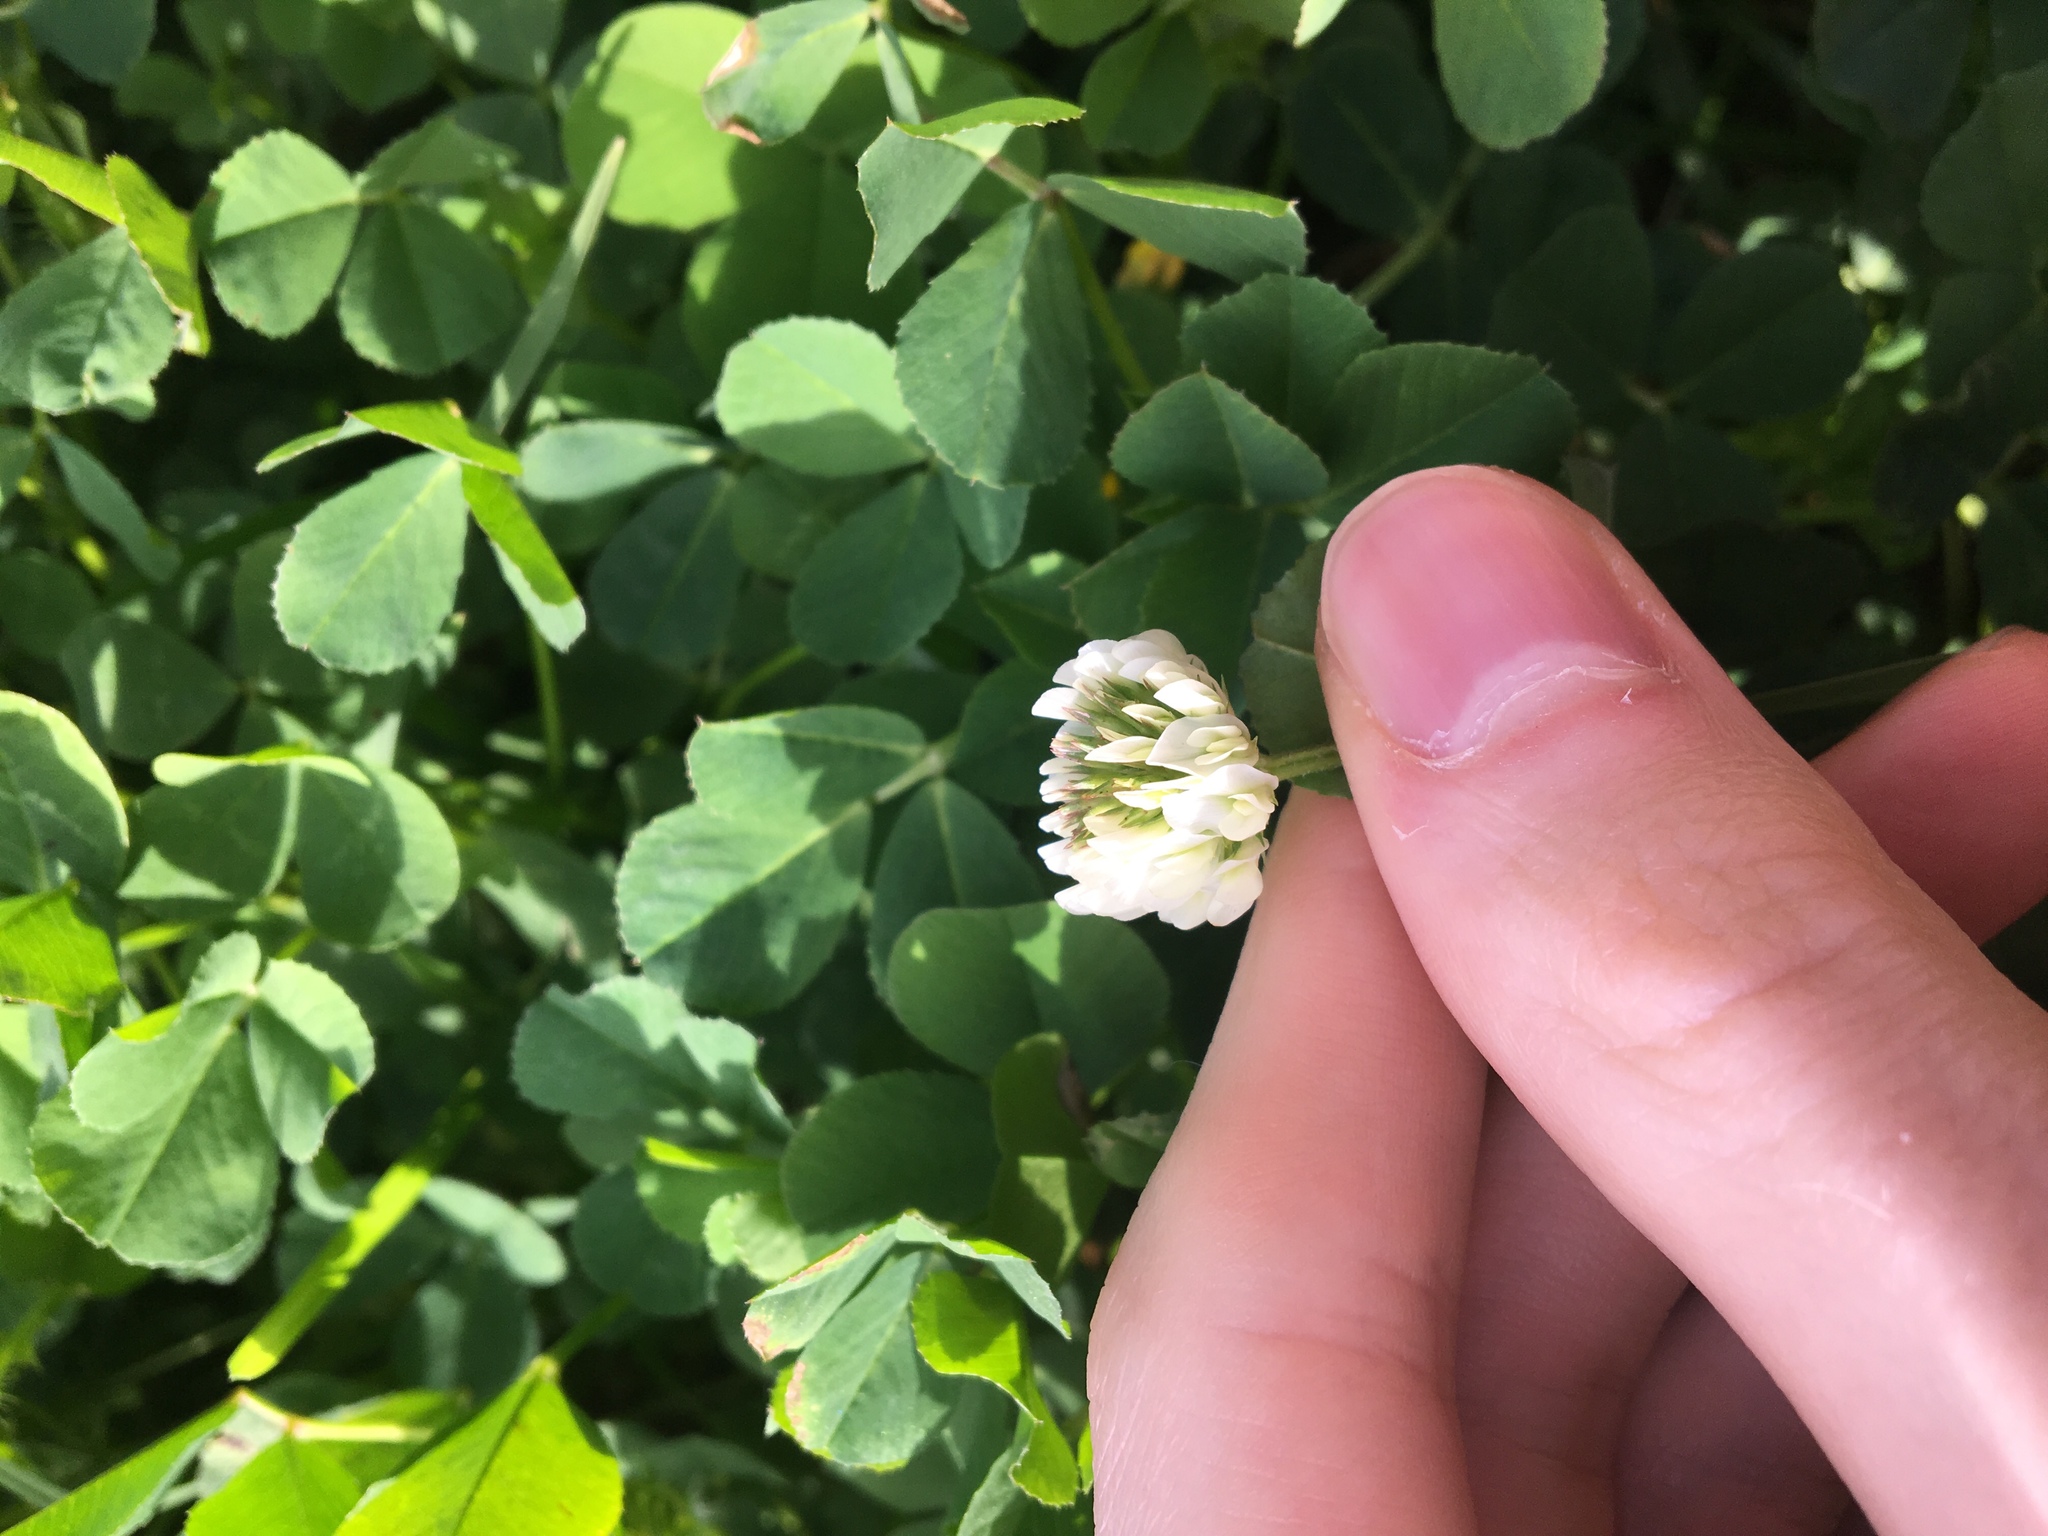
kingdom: Plantae
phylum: Tracheophyta
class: Magnoliopsida
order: Fabales
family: Fabaceae
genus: Trifolium
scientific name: Trifolium repens
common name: White clover
